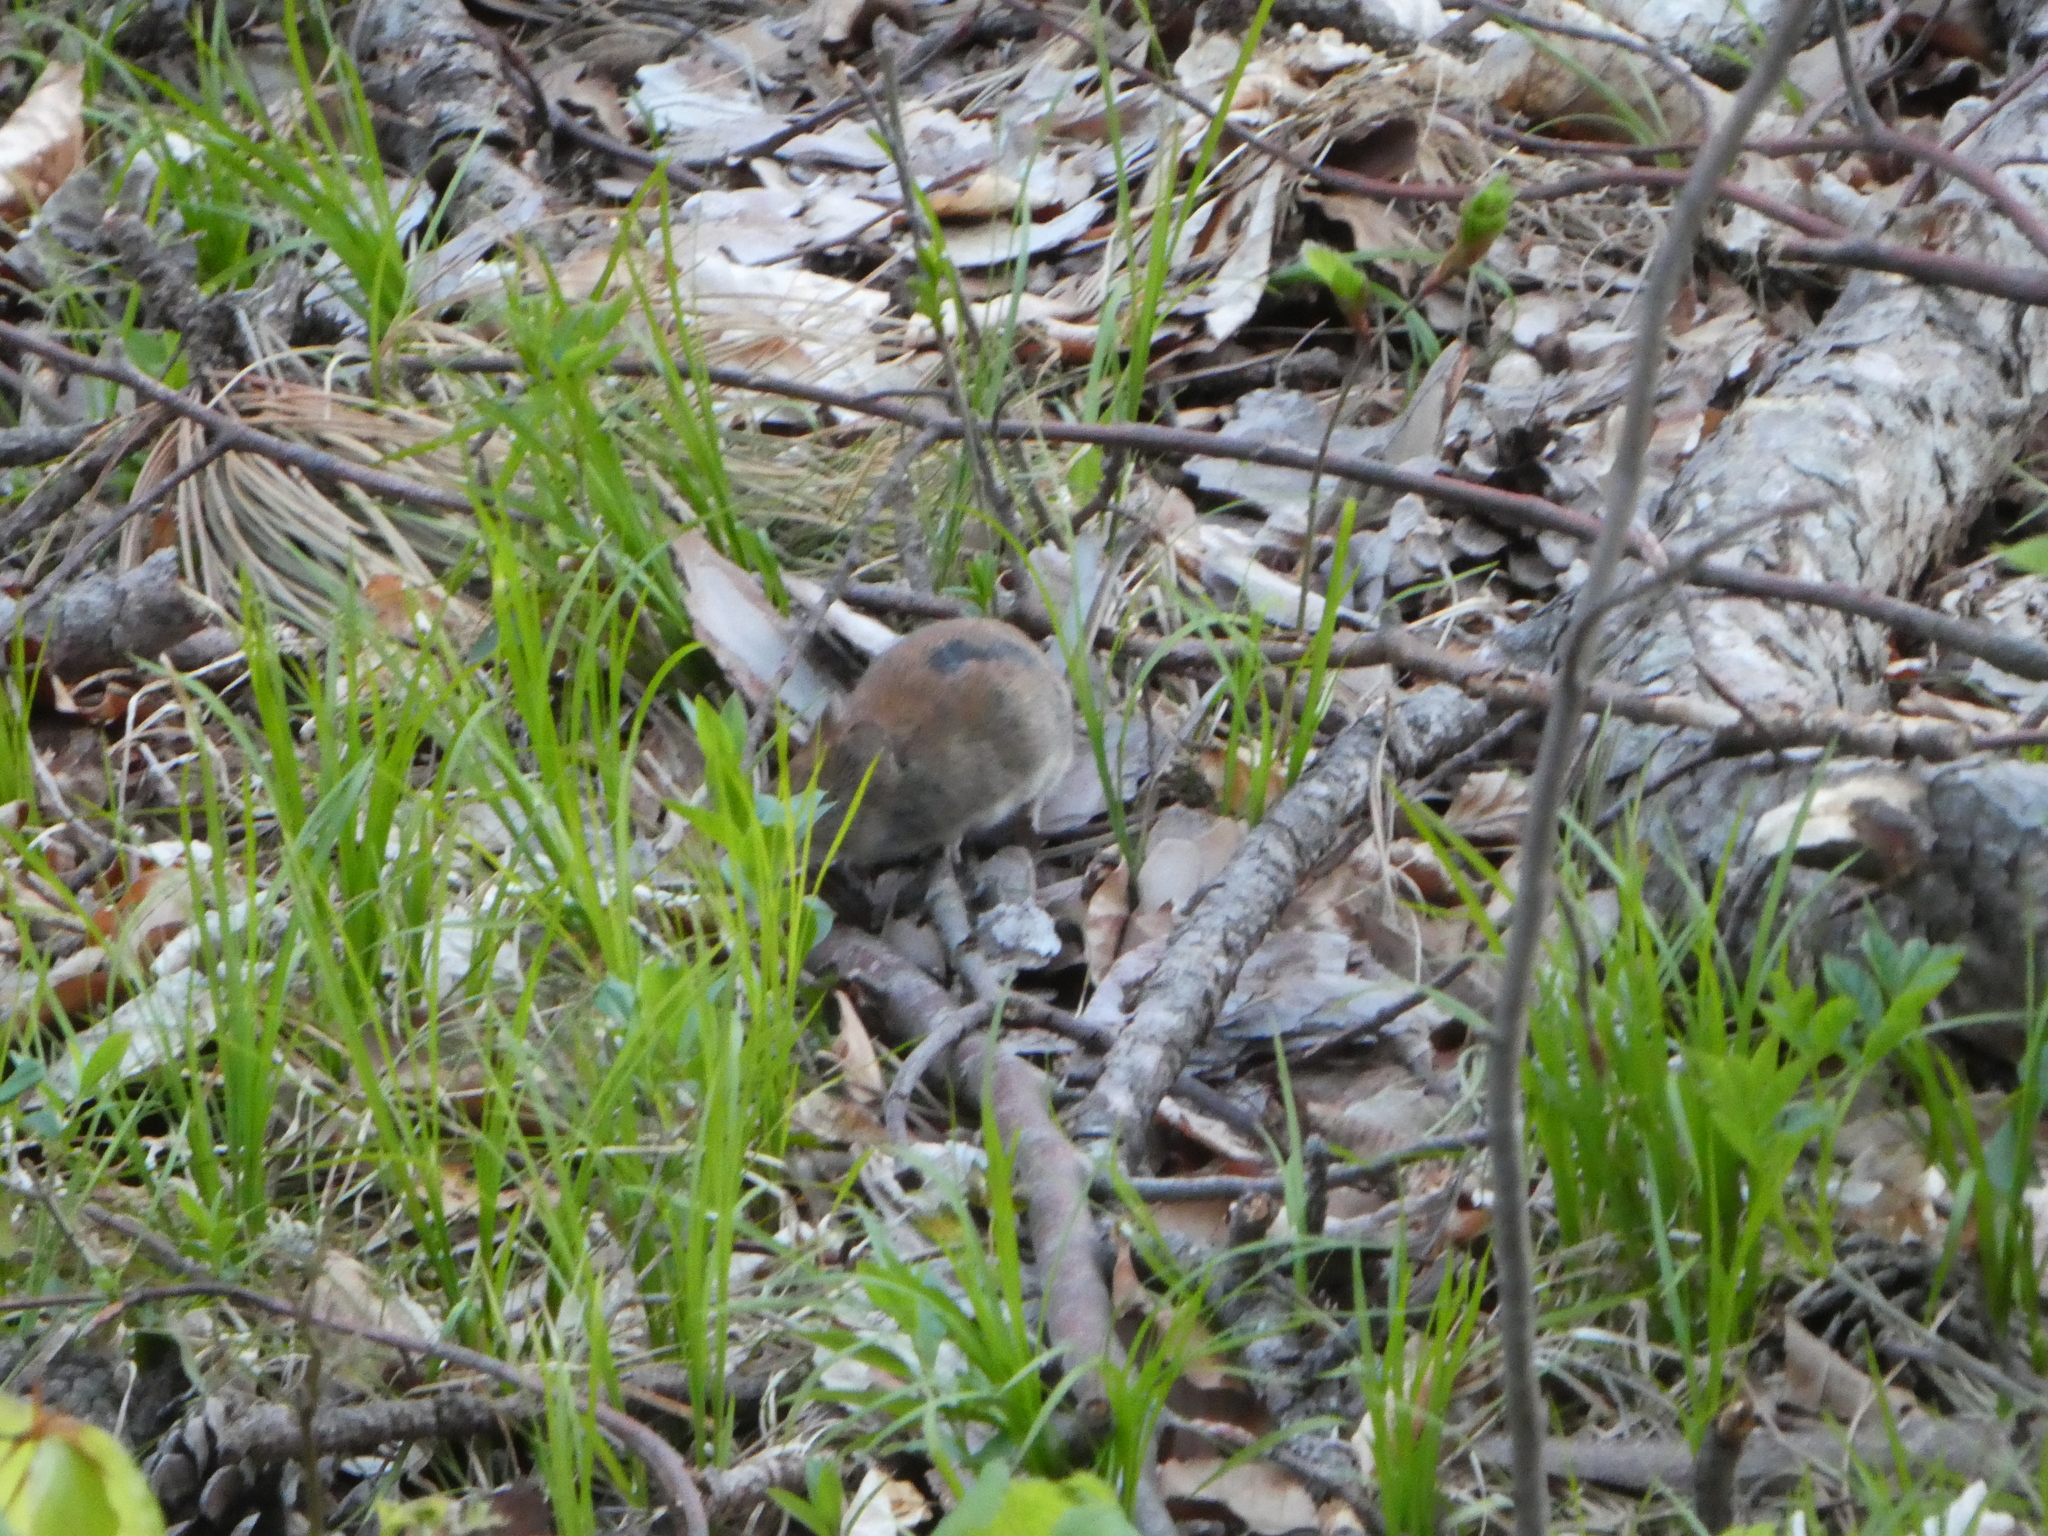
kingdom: Animalia
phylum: Chordata
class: Mammalia
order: Rodentia
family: Cricetidae
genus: Myodes
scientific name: Myodes glareolus
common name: Bank vole
